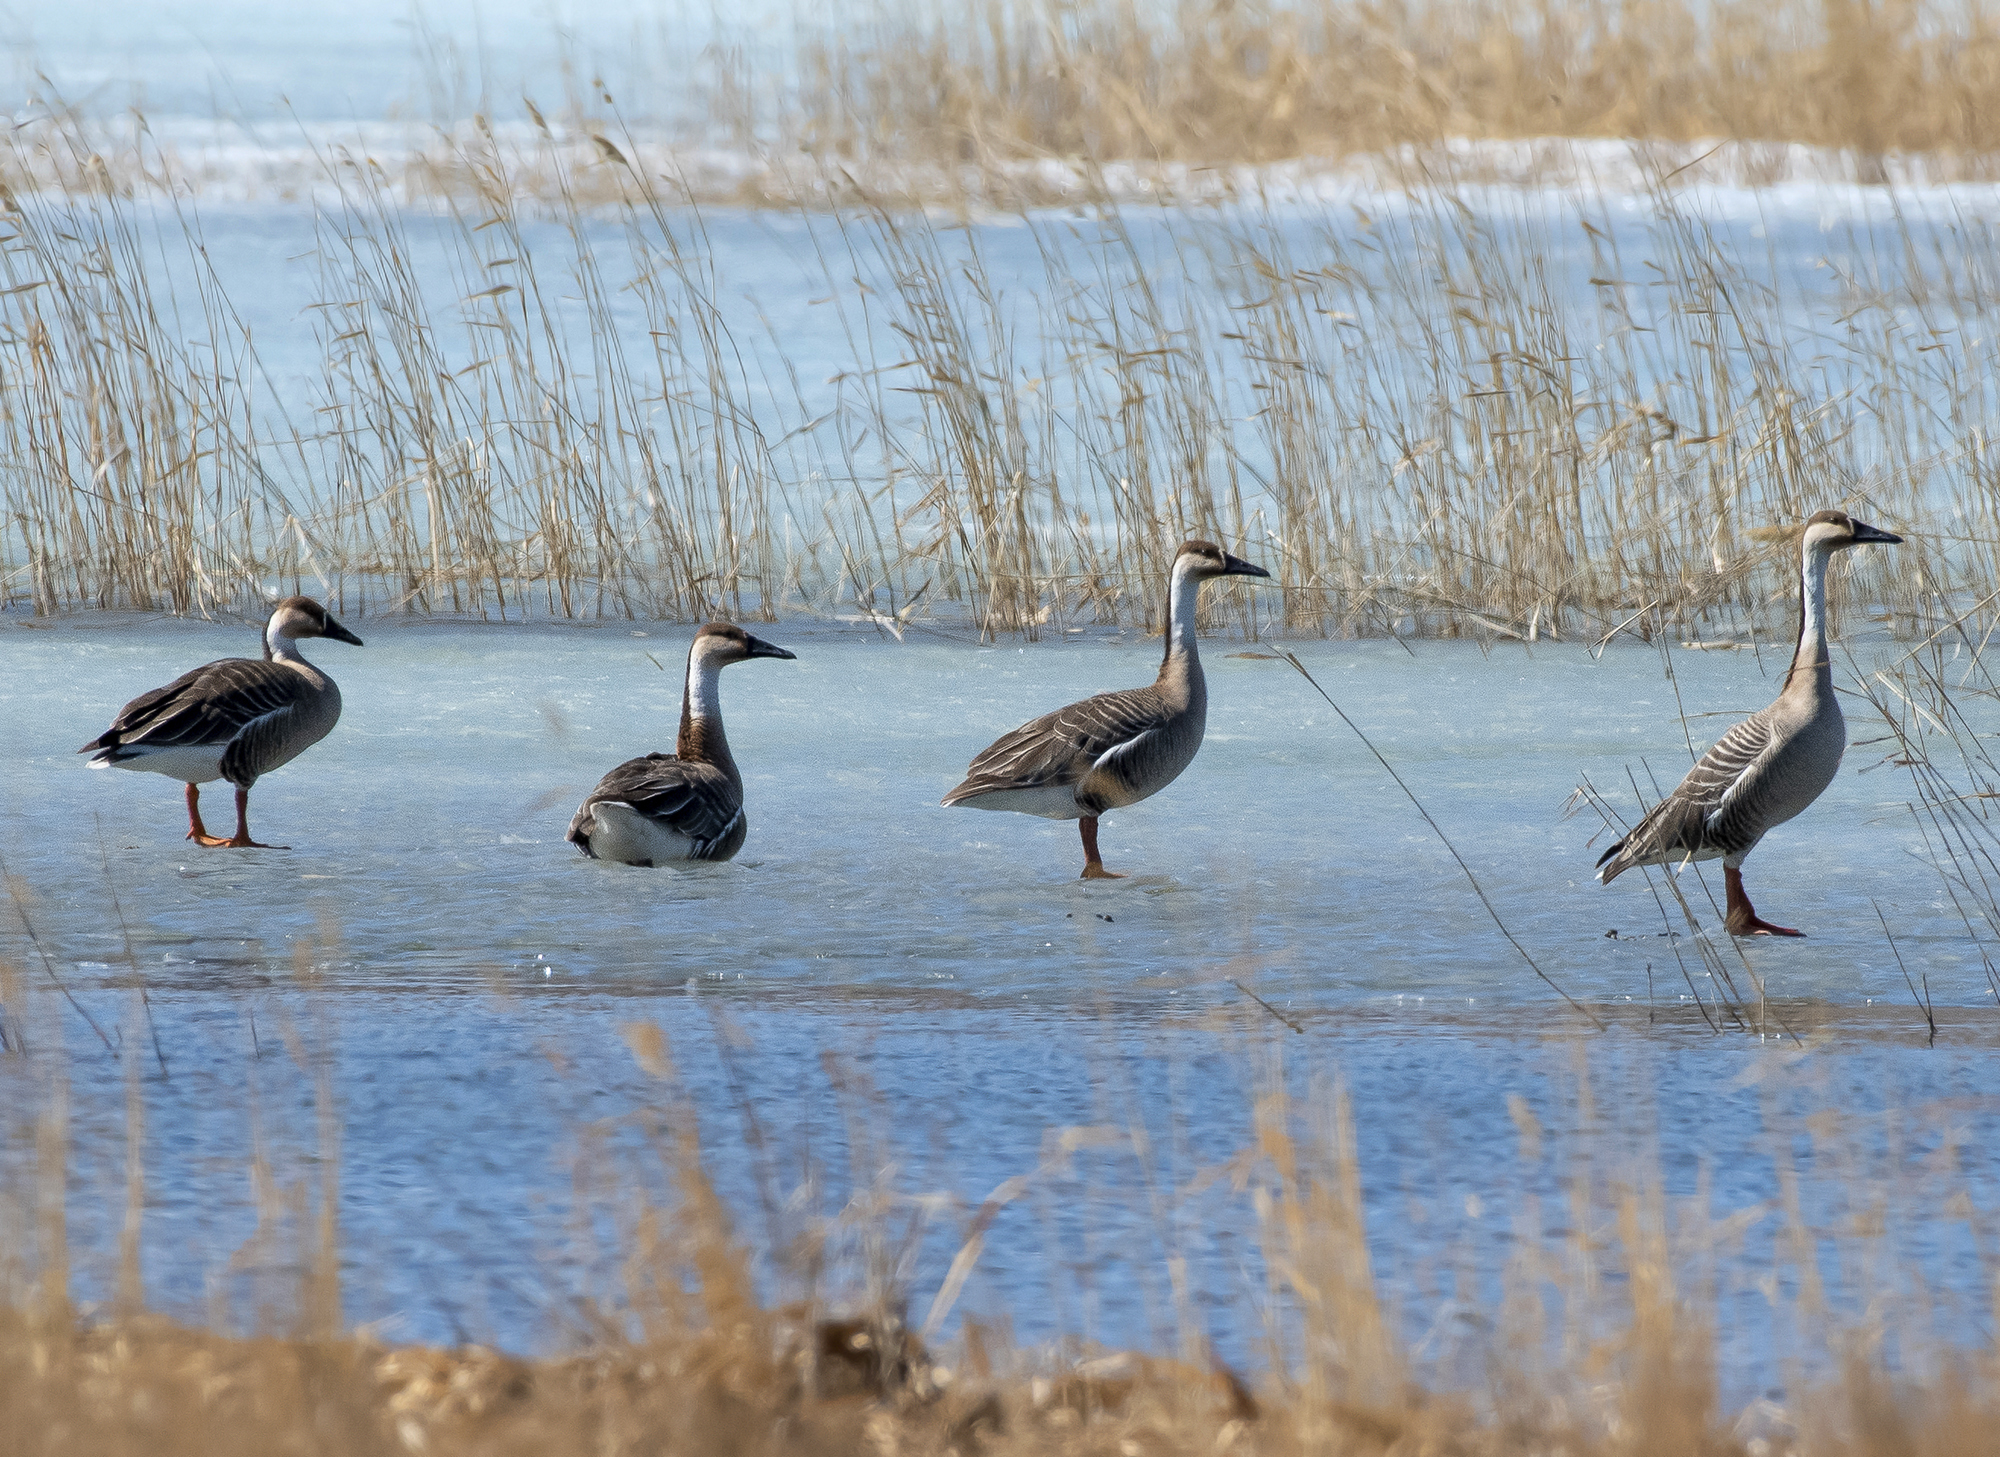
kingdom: Animalia
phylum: Chordata
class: Aves
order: Anseriformes
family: Anatidae
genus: Anser
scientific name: Anser cygnoides
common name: Swan goose
